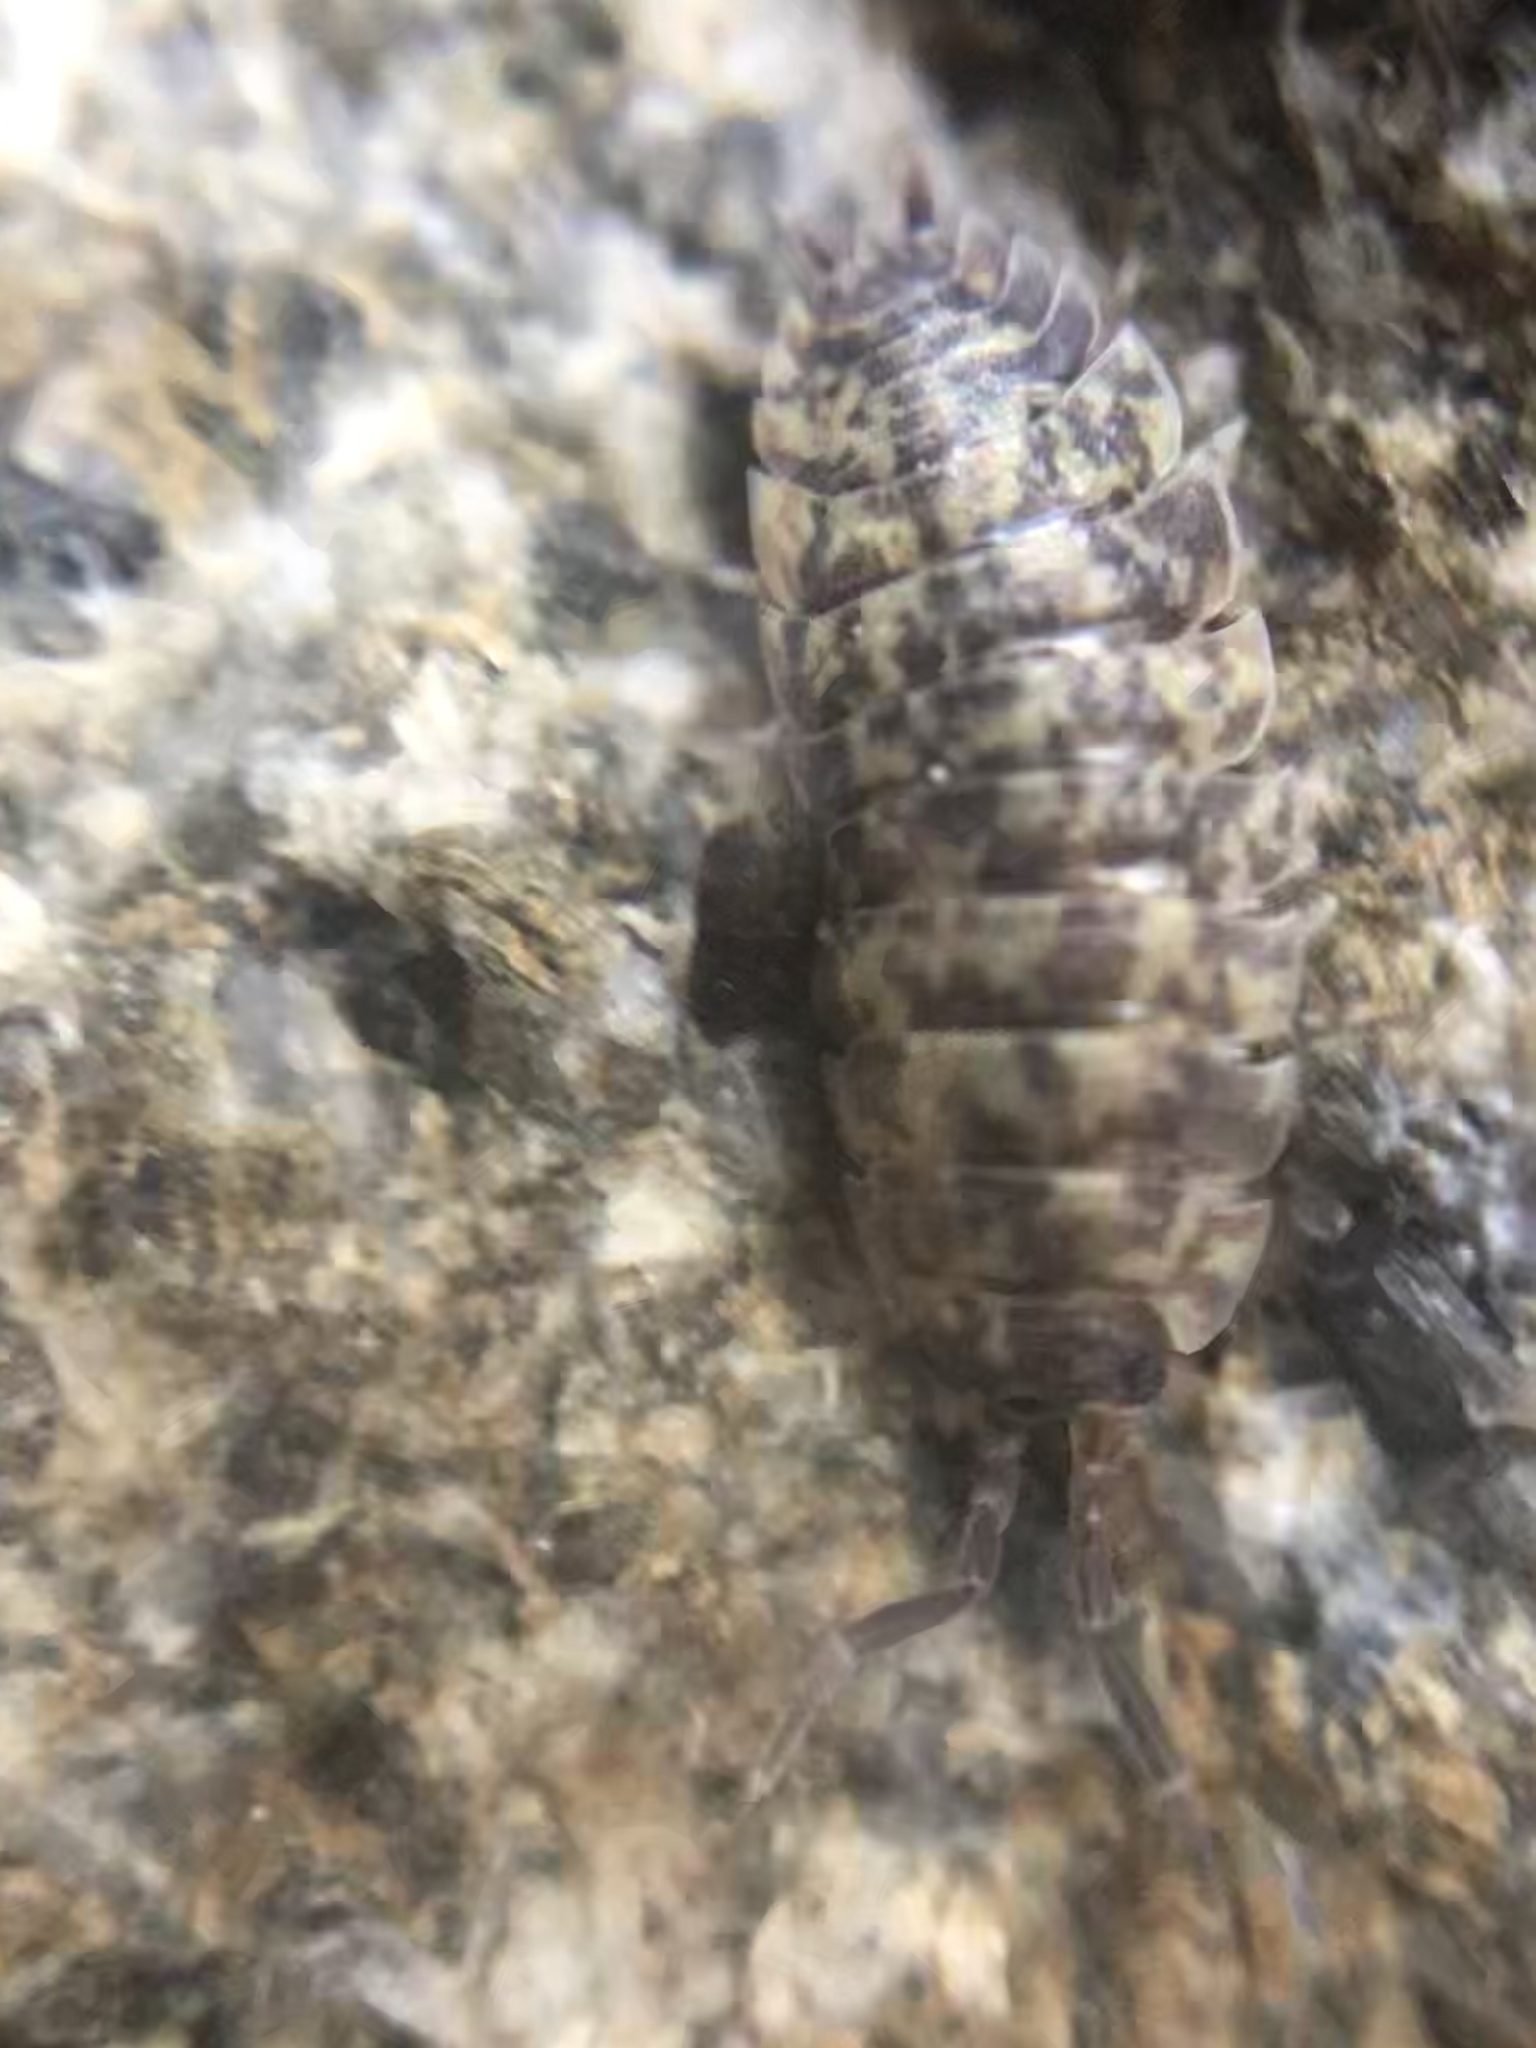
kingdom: Animalia
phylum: Arthropoda
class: Malacostraca
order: Isopoda
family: Porcellionidae
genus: Porcellio
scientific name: Porcellio scaber
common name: Common rough woodlouse
